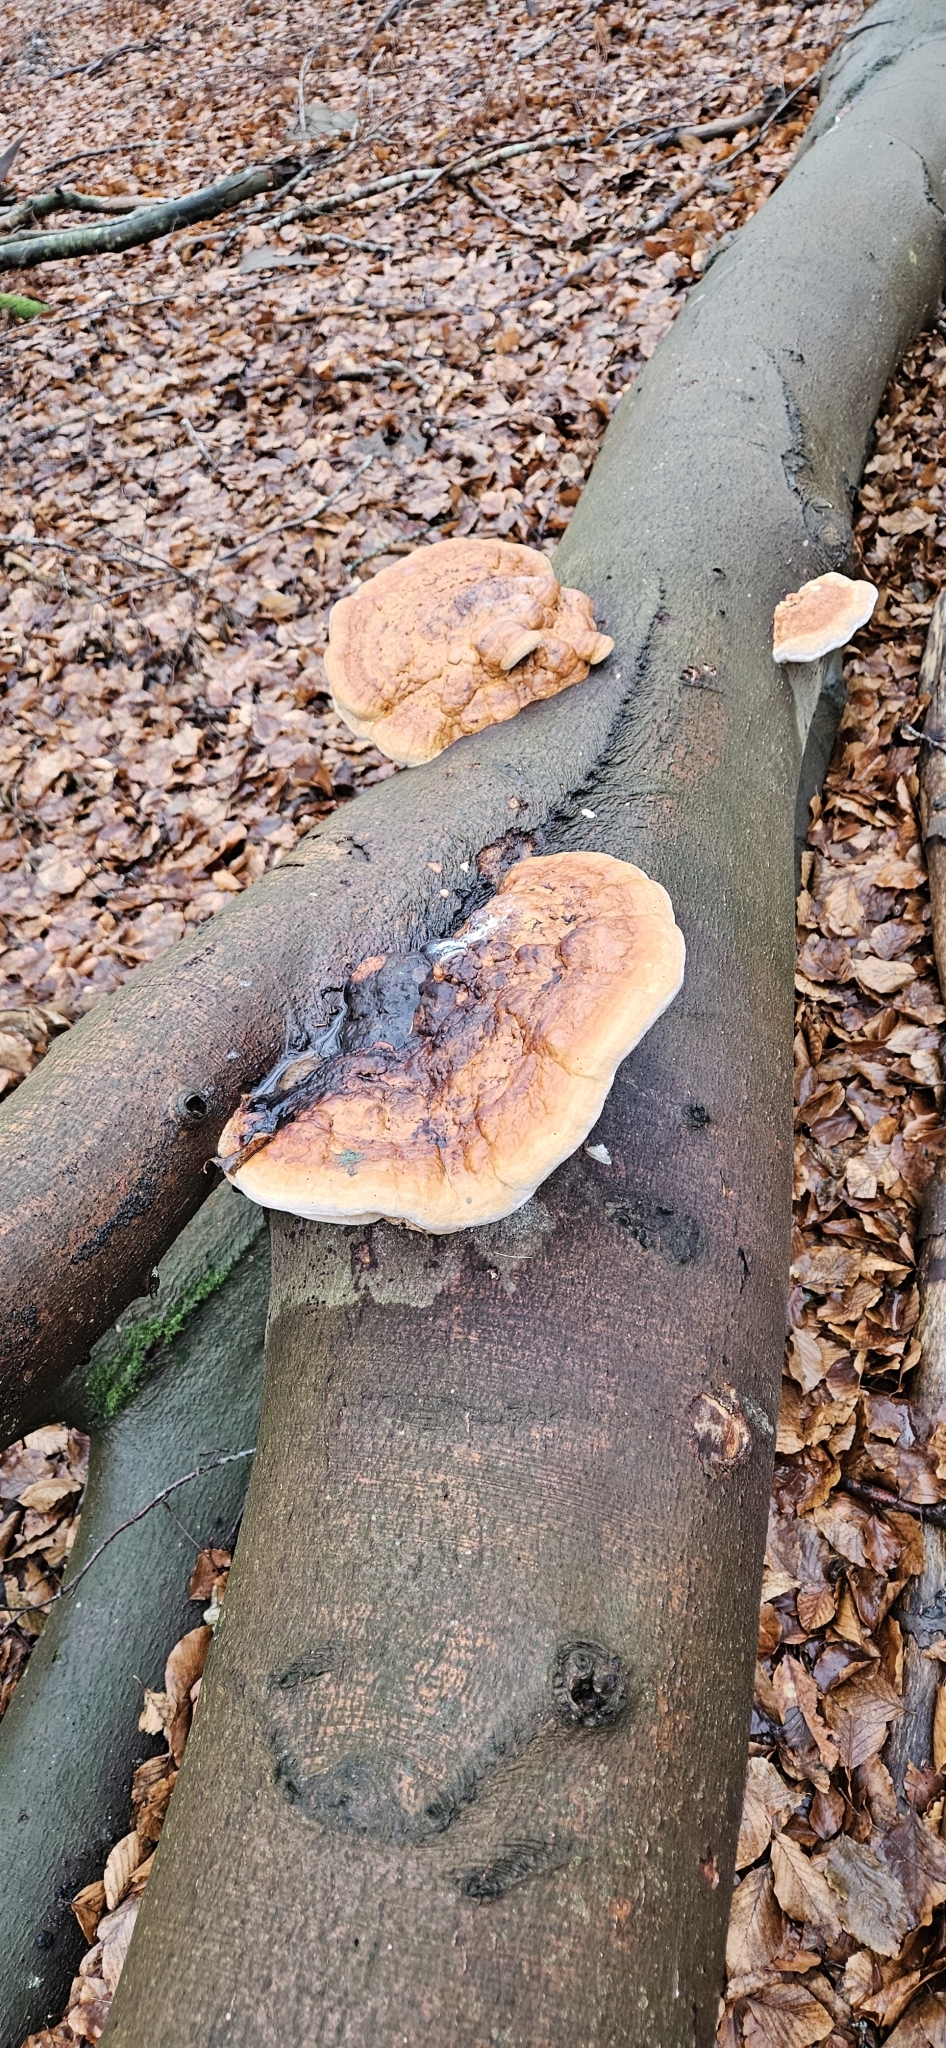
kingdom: Fungi
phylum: Basidiomycota
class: Agaricomycetes
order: Polyporales
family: Fomitopsidaceae
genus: Fomitopsis
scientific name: Fomitopsis pinicola
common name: Red-belted bracket
